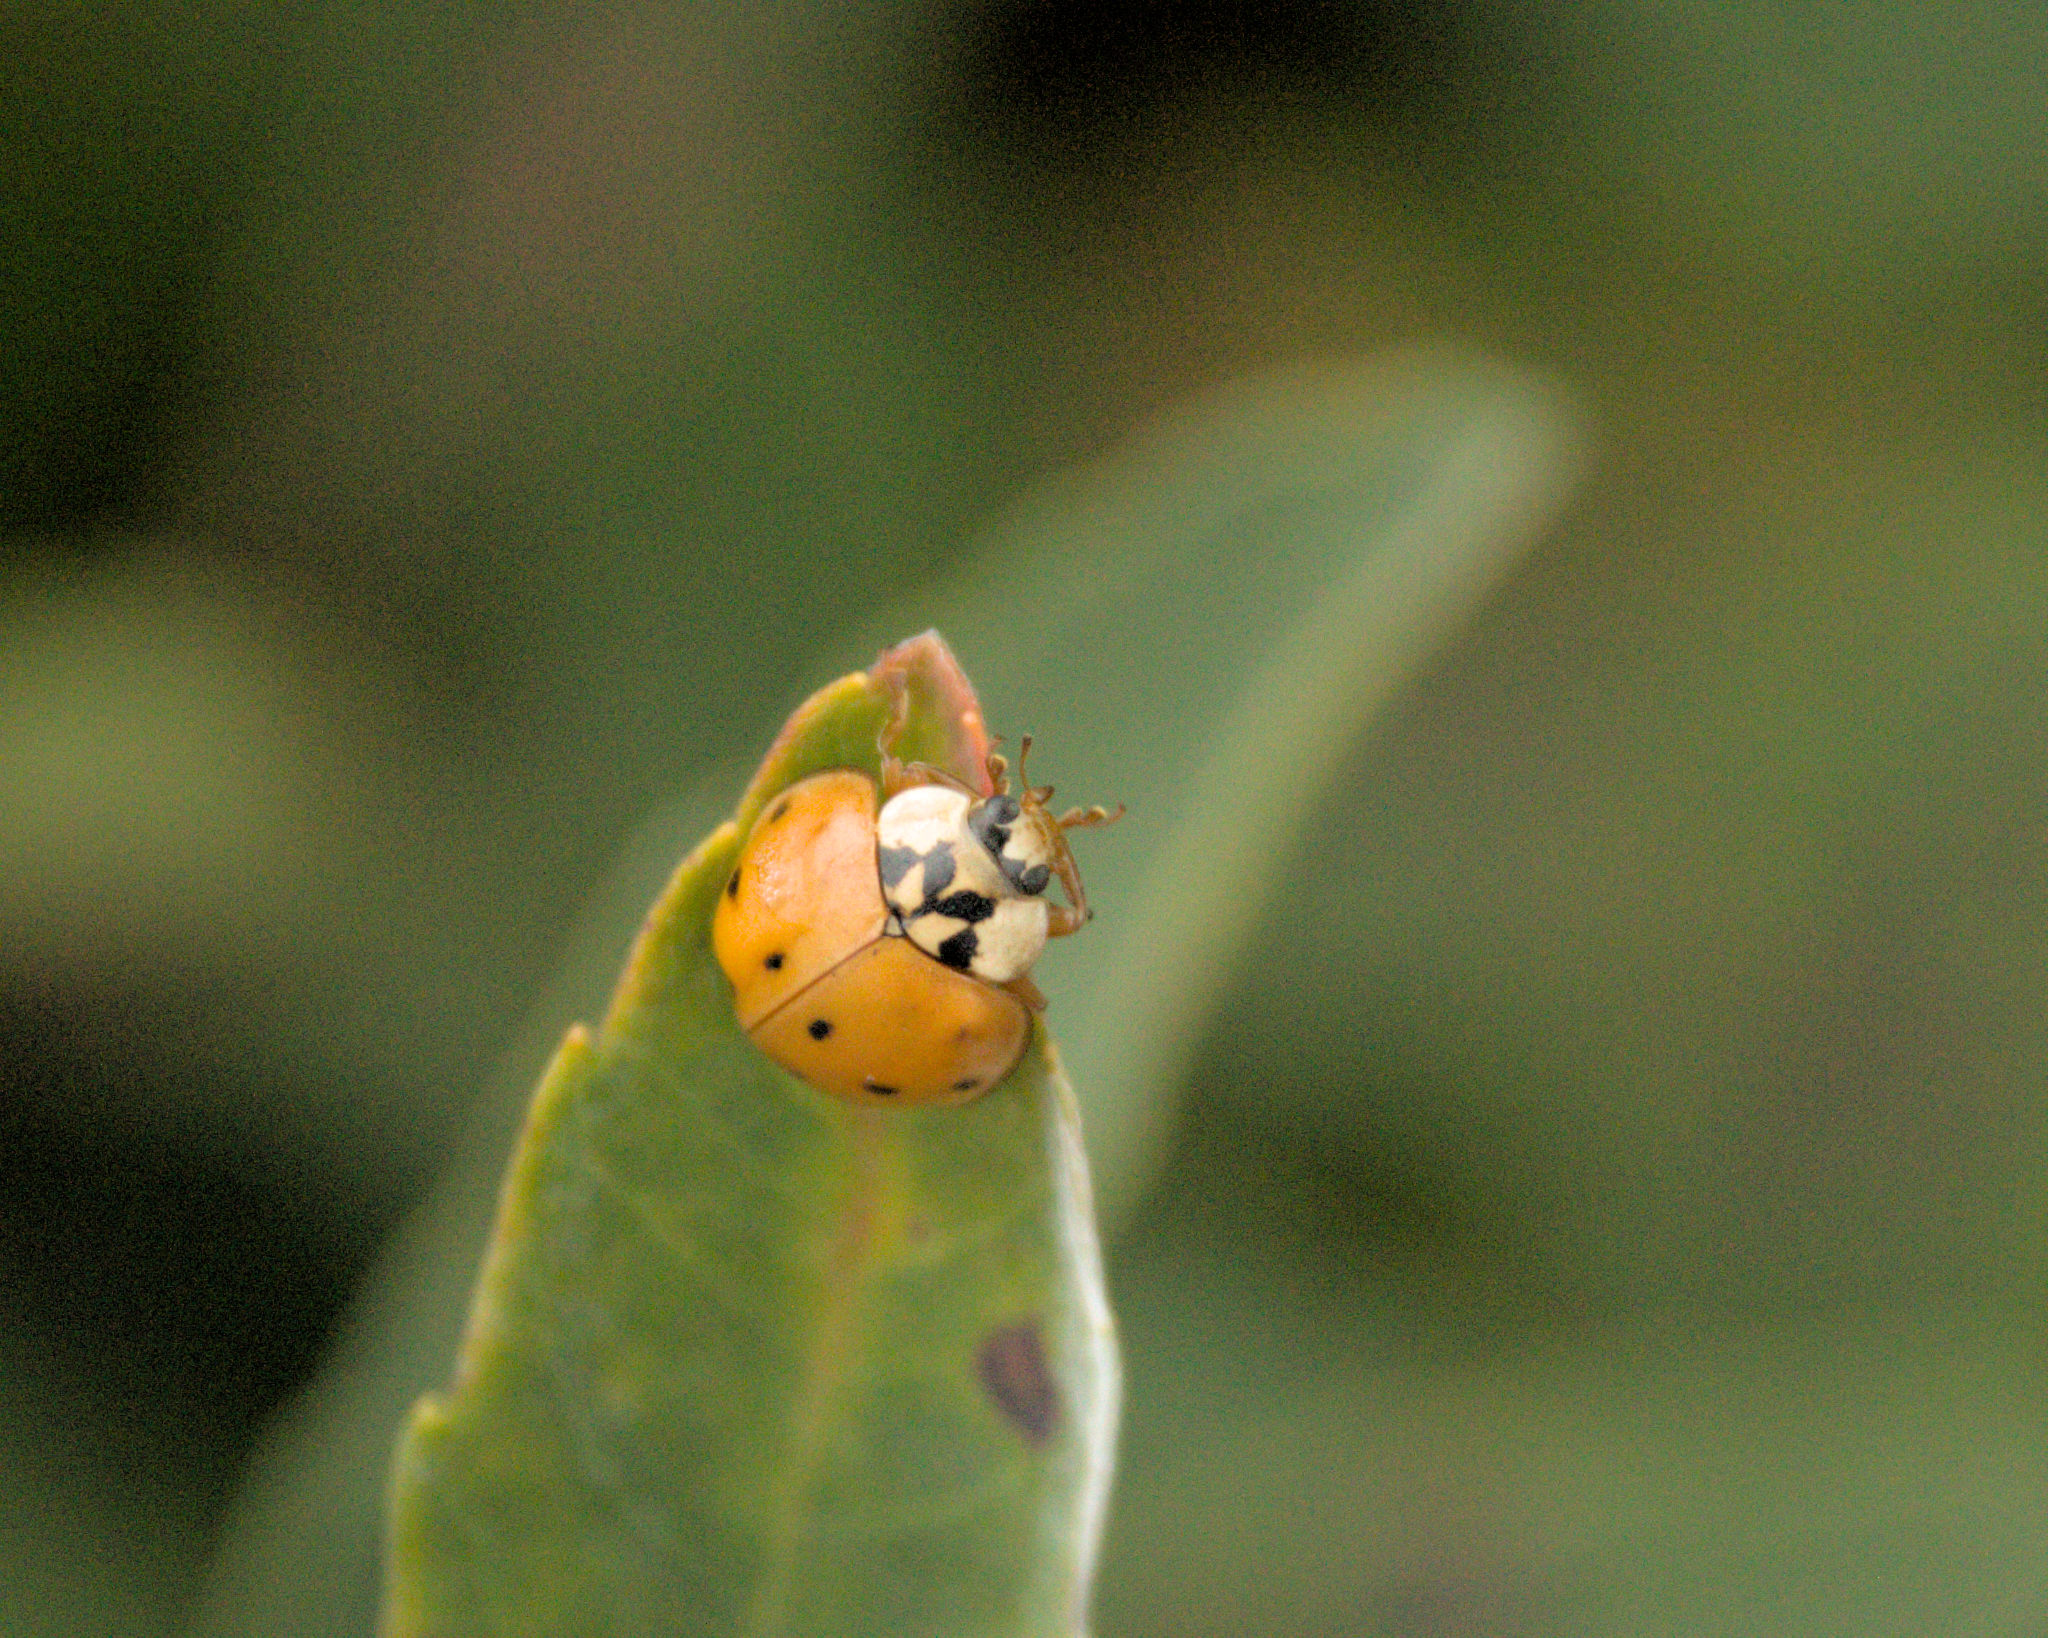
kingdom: Animalia
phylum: Arthropoda
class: Insecta
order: Coleoptera
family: Coccinellidae
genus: Harmonia
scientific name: Harmonia axyridis
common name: Harlequin ladybird
